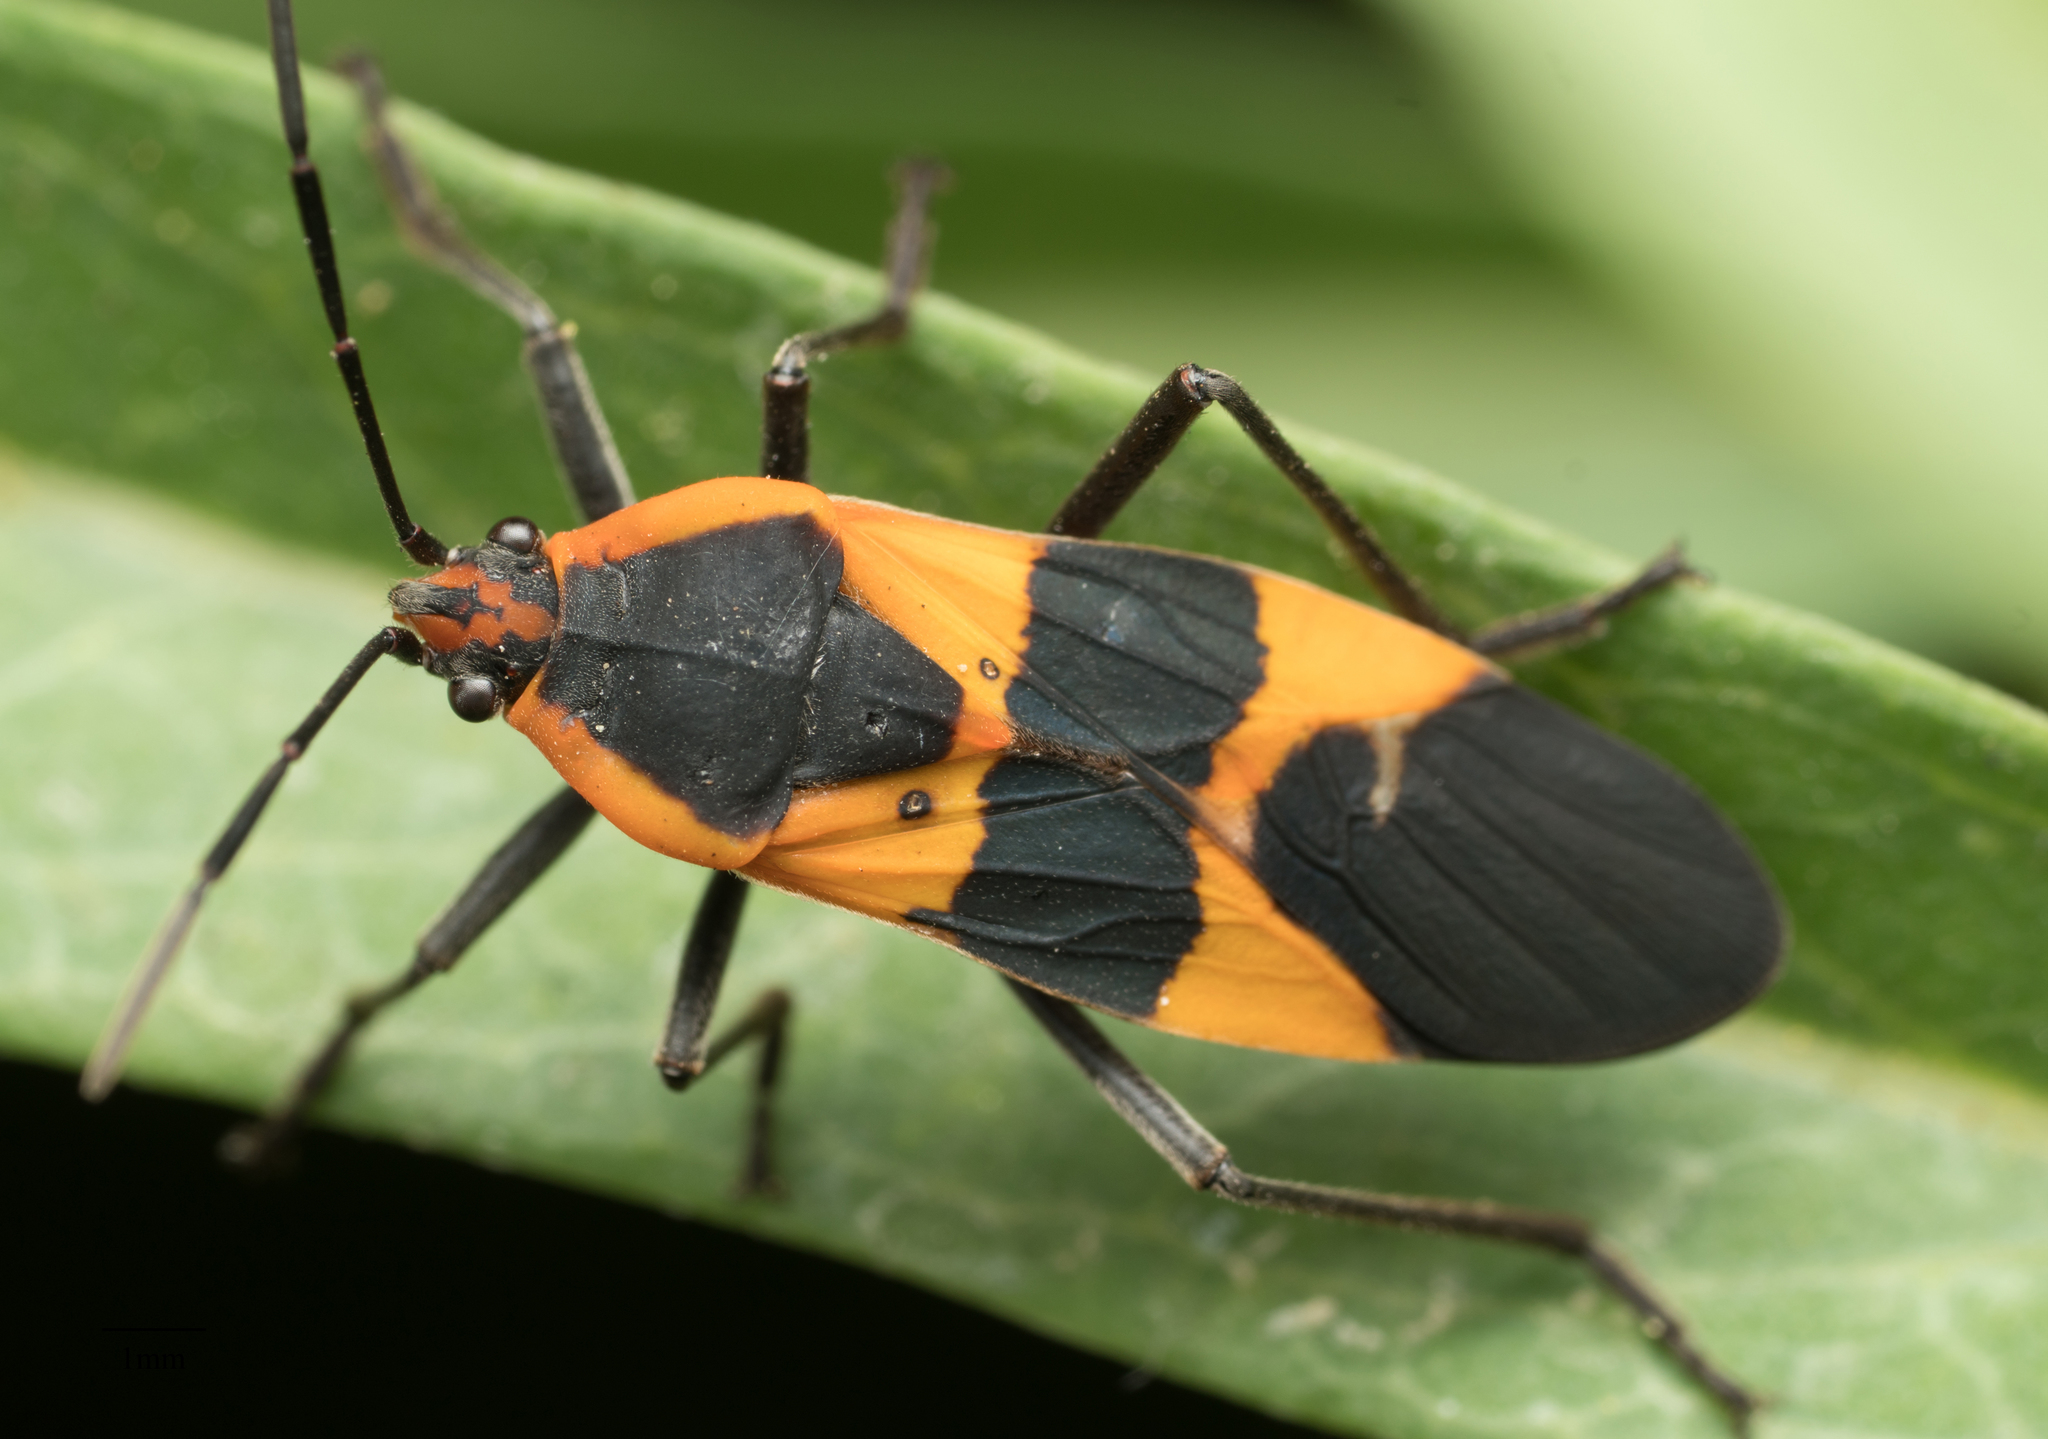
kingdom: Animalia
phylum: Arthropoda
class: Insecta
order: Hemiptera
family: Lygaeidae
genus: Oncopeltus
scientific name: Oncopeltus fasciatus
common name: Large milkweed bug
